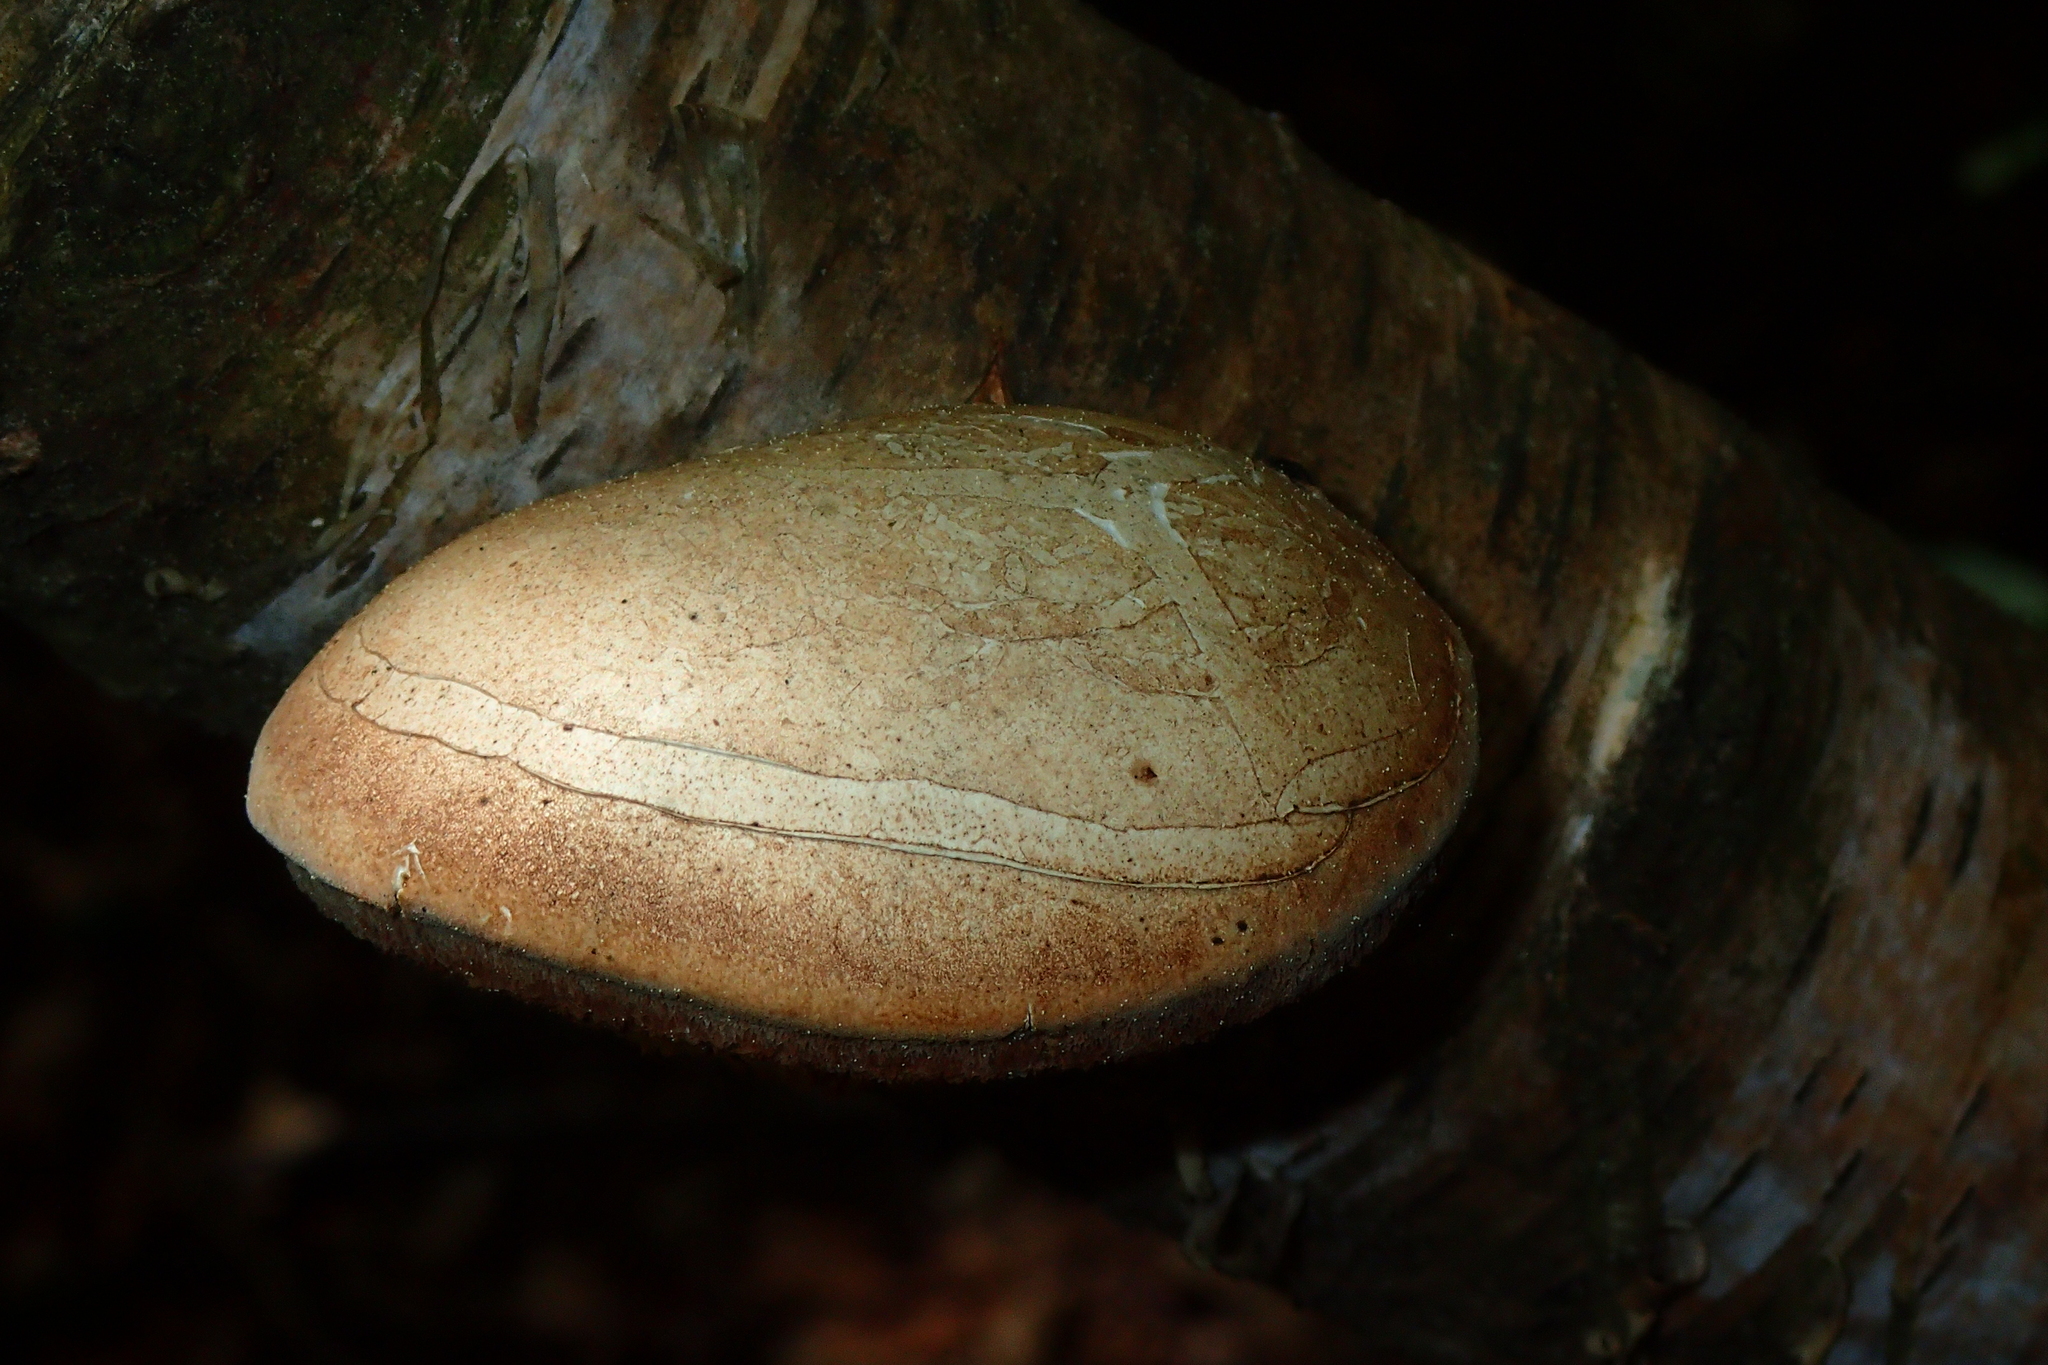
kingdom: Fungi
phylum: Basidiomycota
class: Agaricomycetes
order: Polyporales
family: Fomitopsidaceae
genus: Fomitopsis
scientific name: Fomitopsis betulina
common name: Birch polypore
